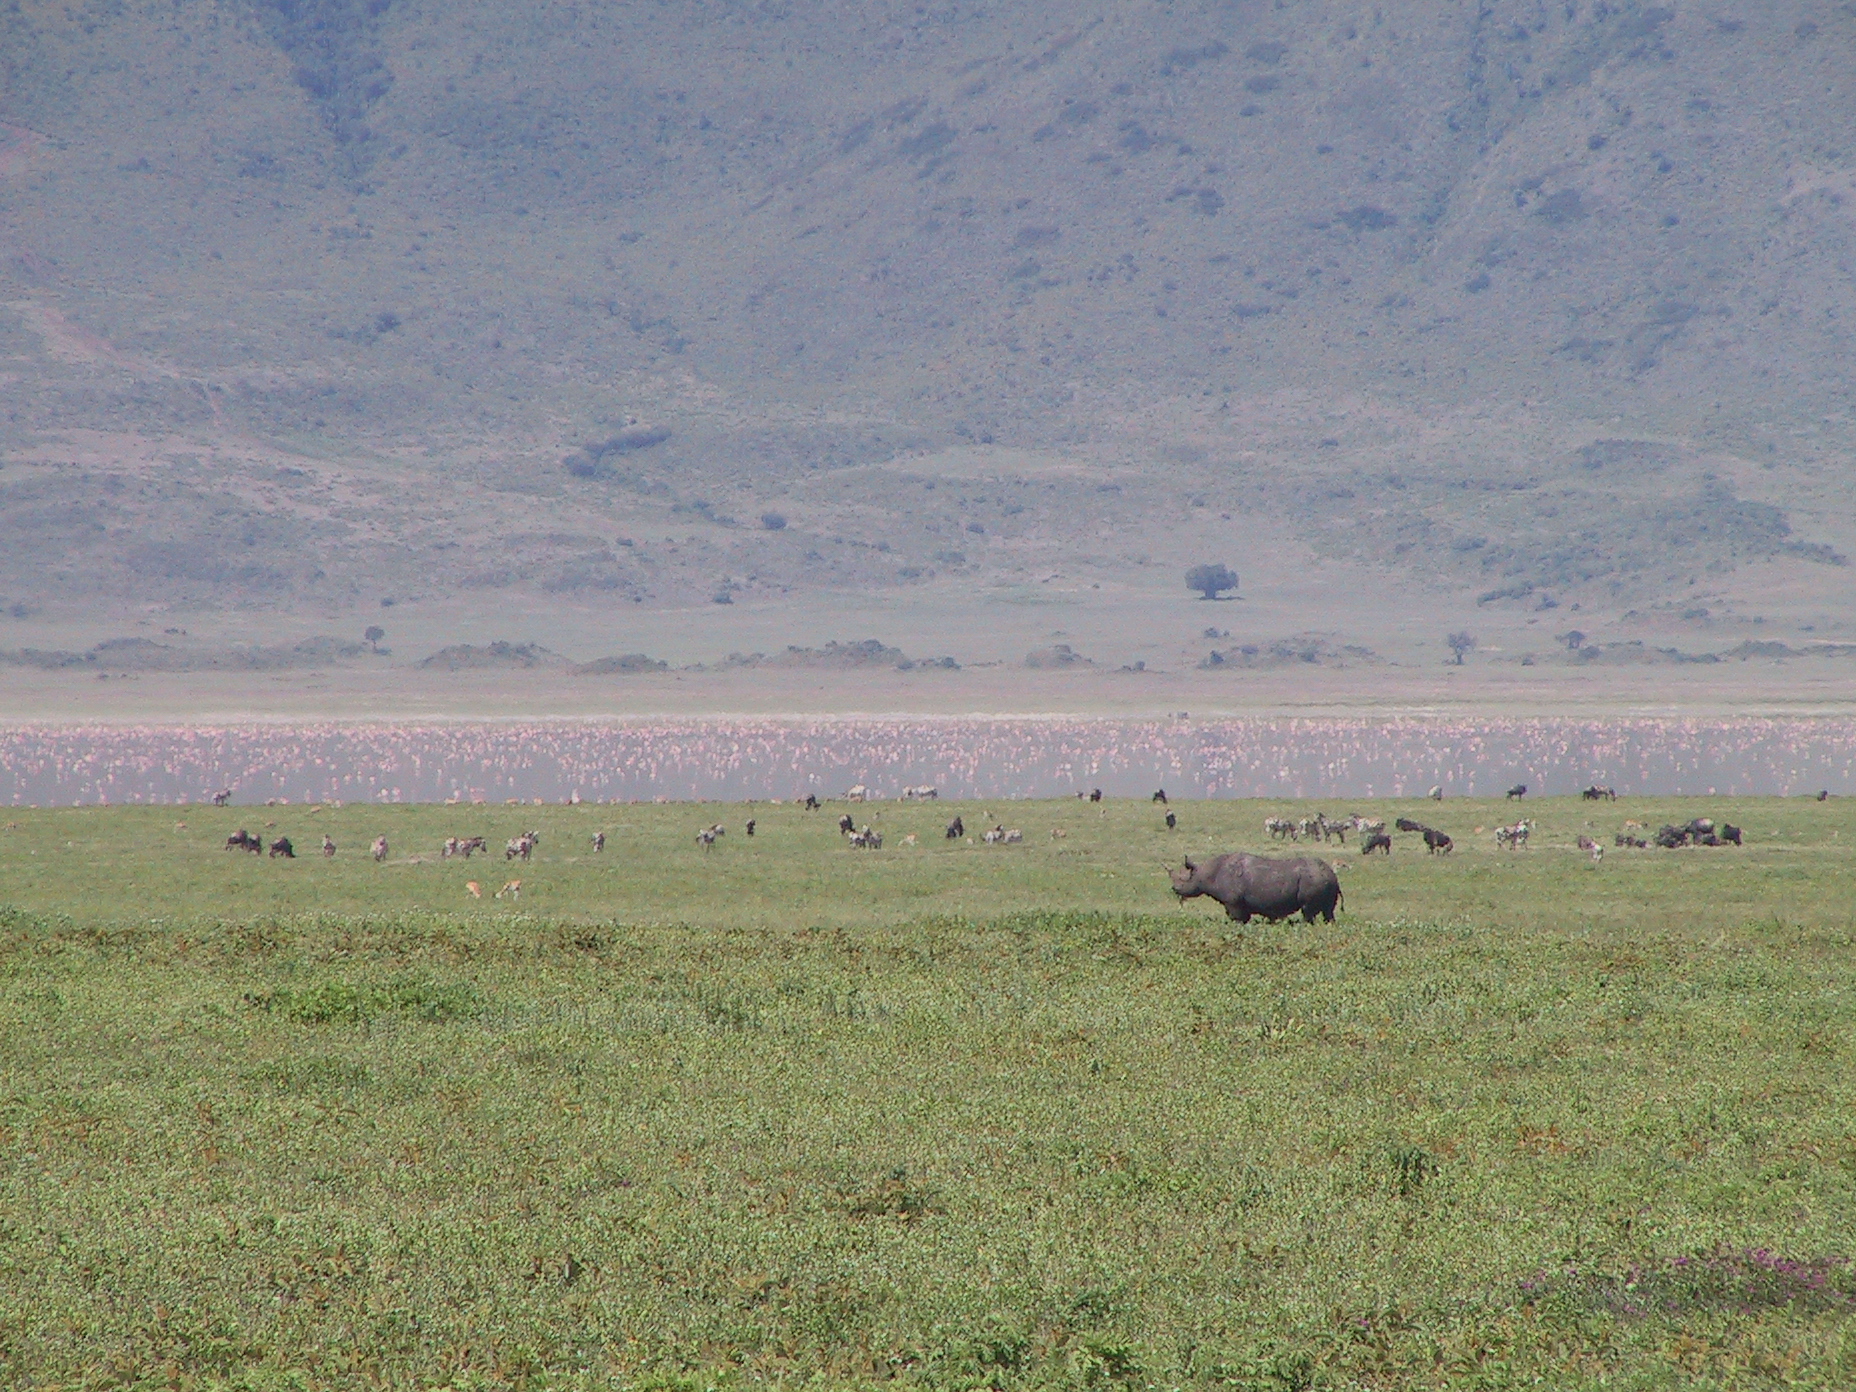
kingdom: Animalia
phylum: Chordata
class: Mammalia
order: Perissodactyla
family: Rhinocerotidae
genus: Diceros
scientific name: Diceros bicornis
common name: Black rhinoceros
